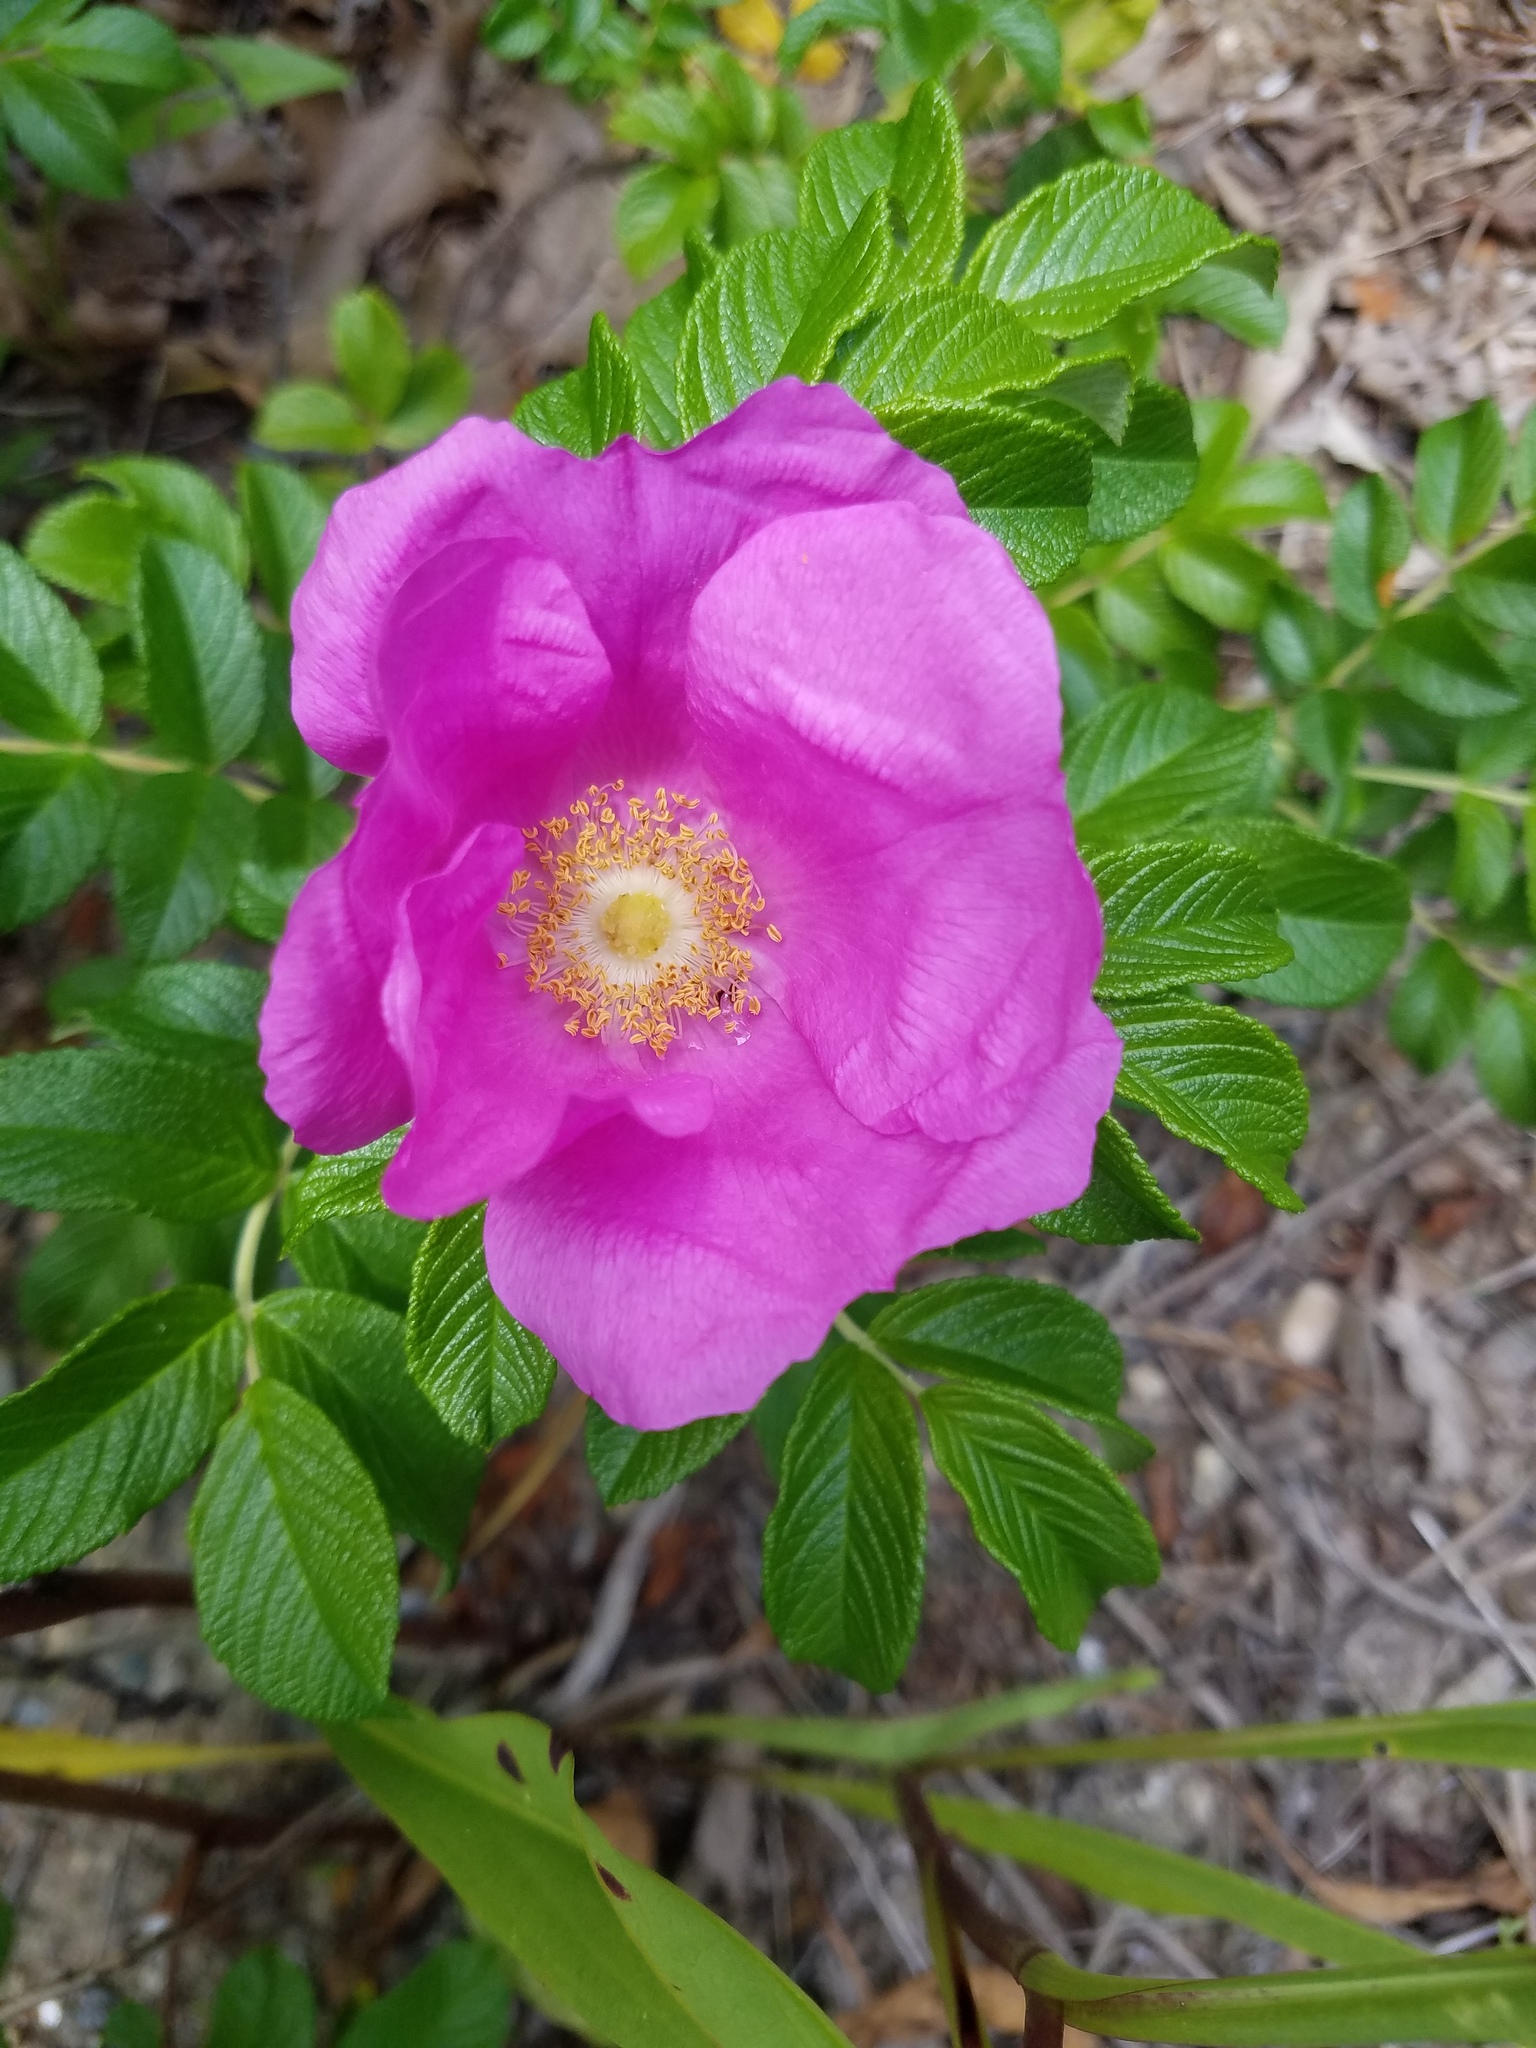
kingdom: Plantae
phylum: Tracheophyta
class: Magnoliopsida
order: Rosales
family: Rosaceae
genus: Rosa
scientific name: Rosa rugosa
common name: Japanese rose
